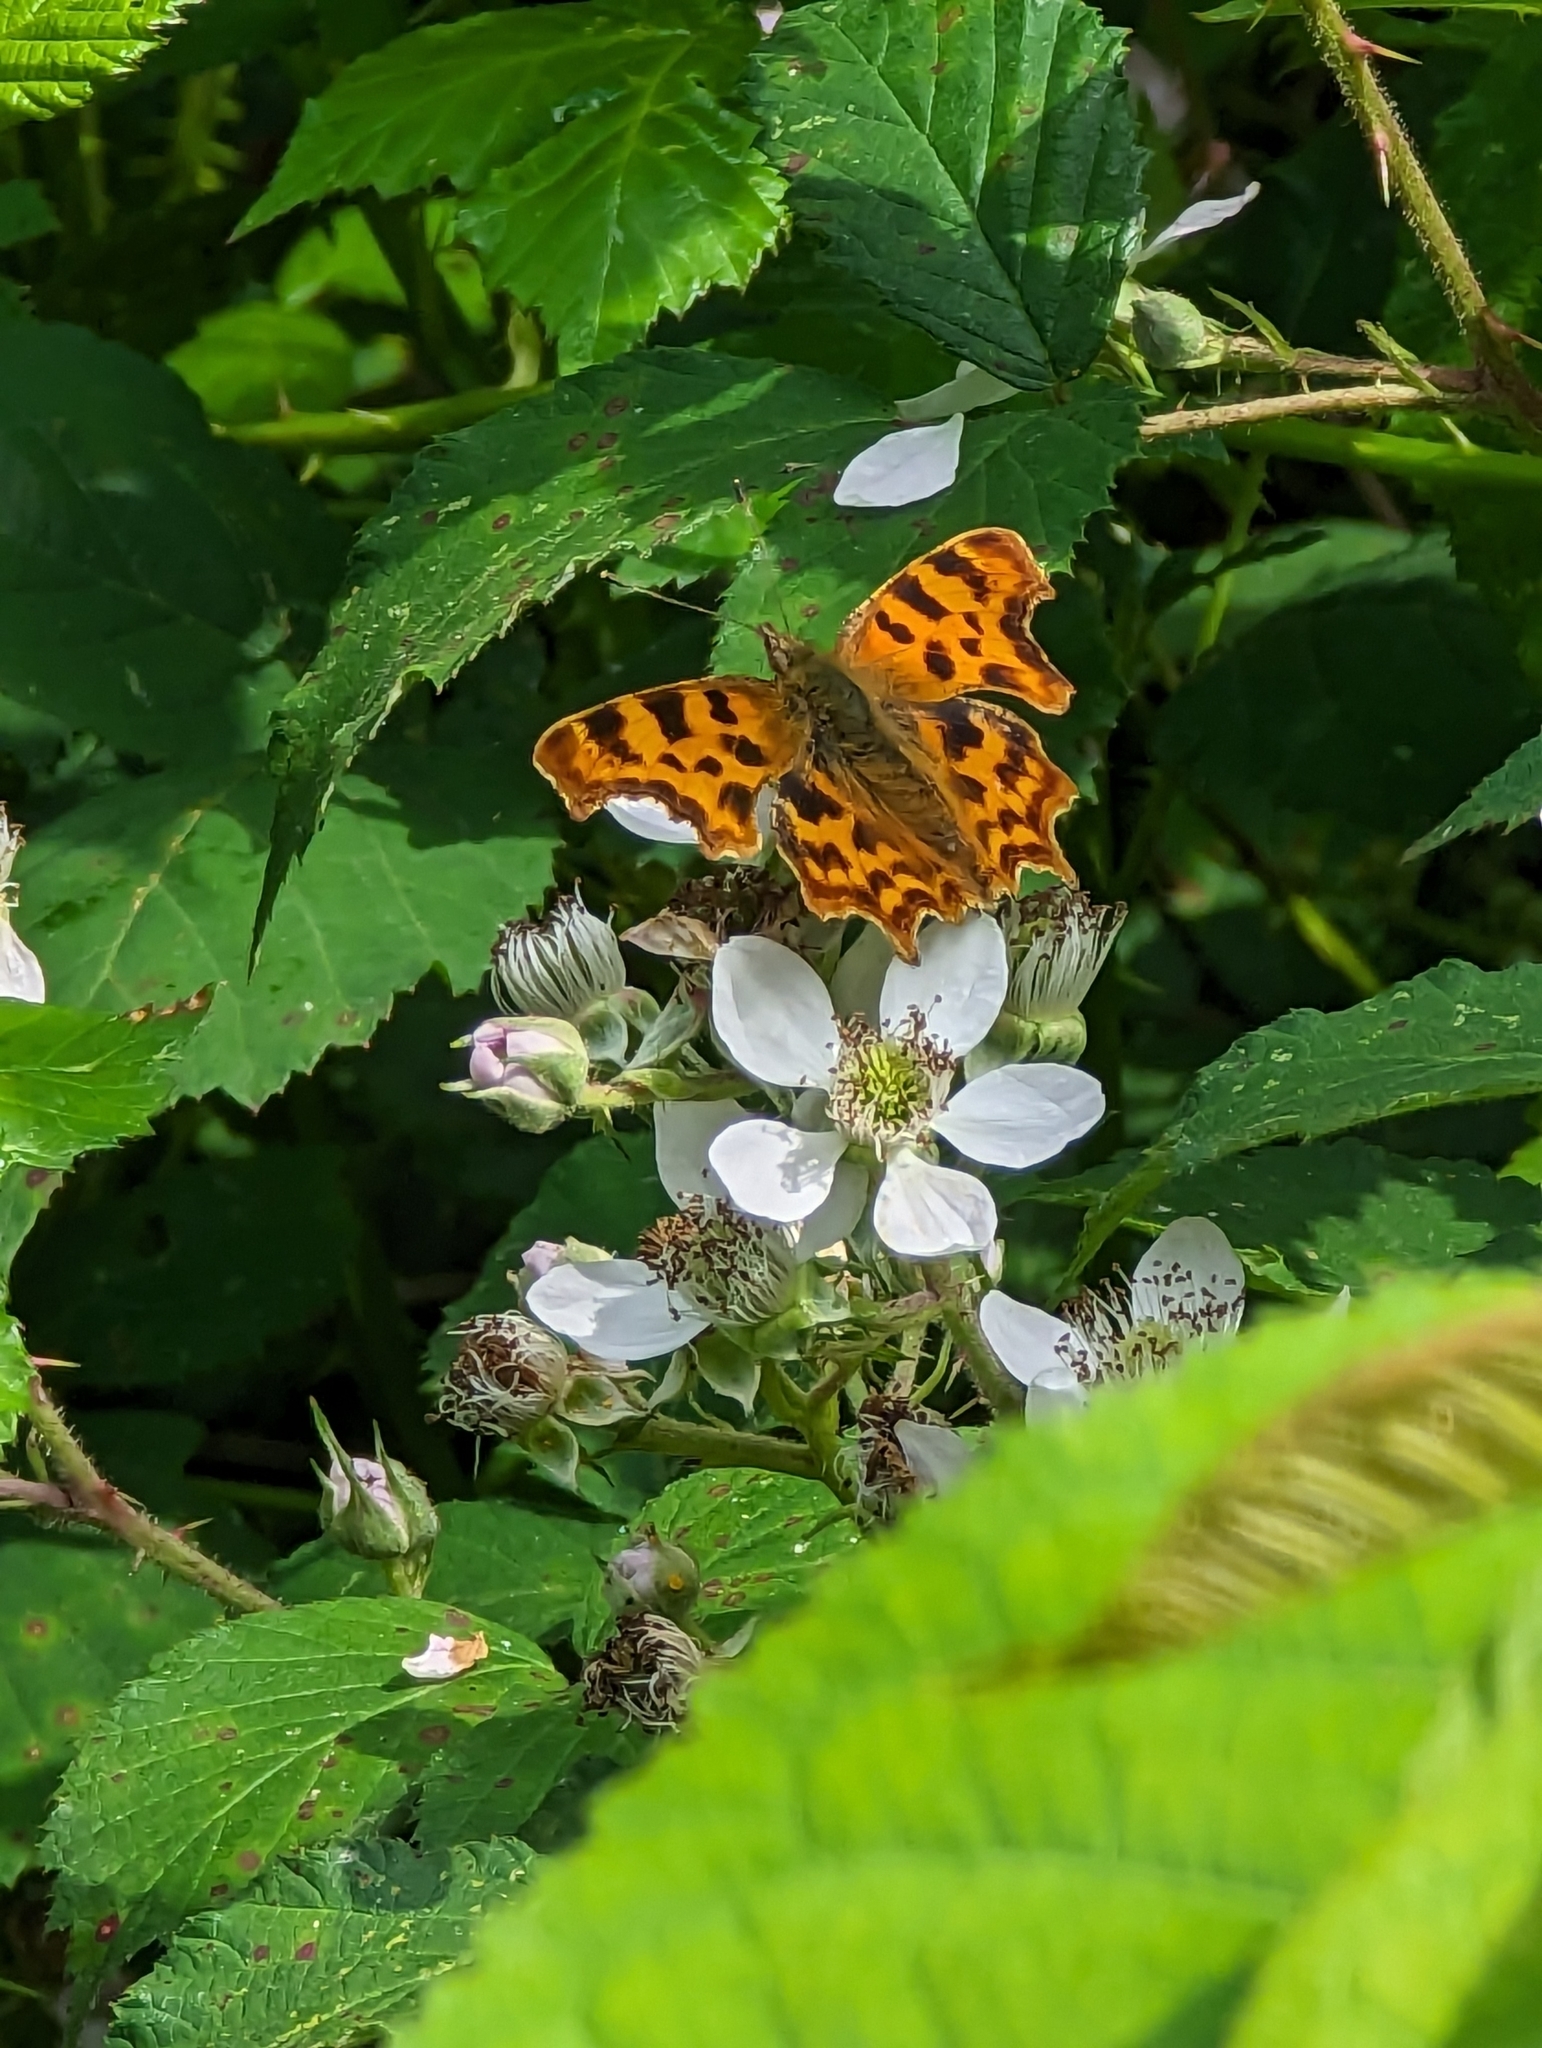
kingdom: Animalia
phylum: Arthropoda
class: Insecta
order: Lepidoptera
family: Nymphalidae
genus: Polygonia
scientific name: Polygonia c-album
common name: Comma
